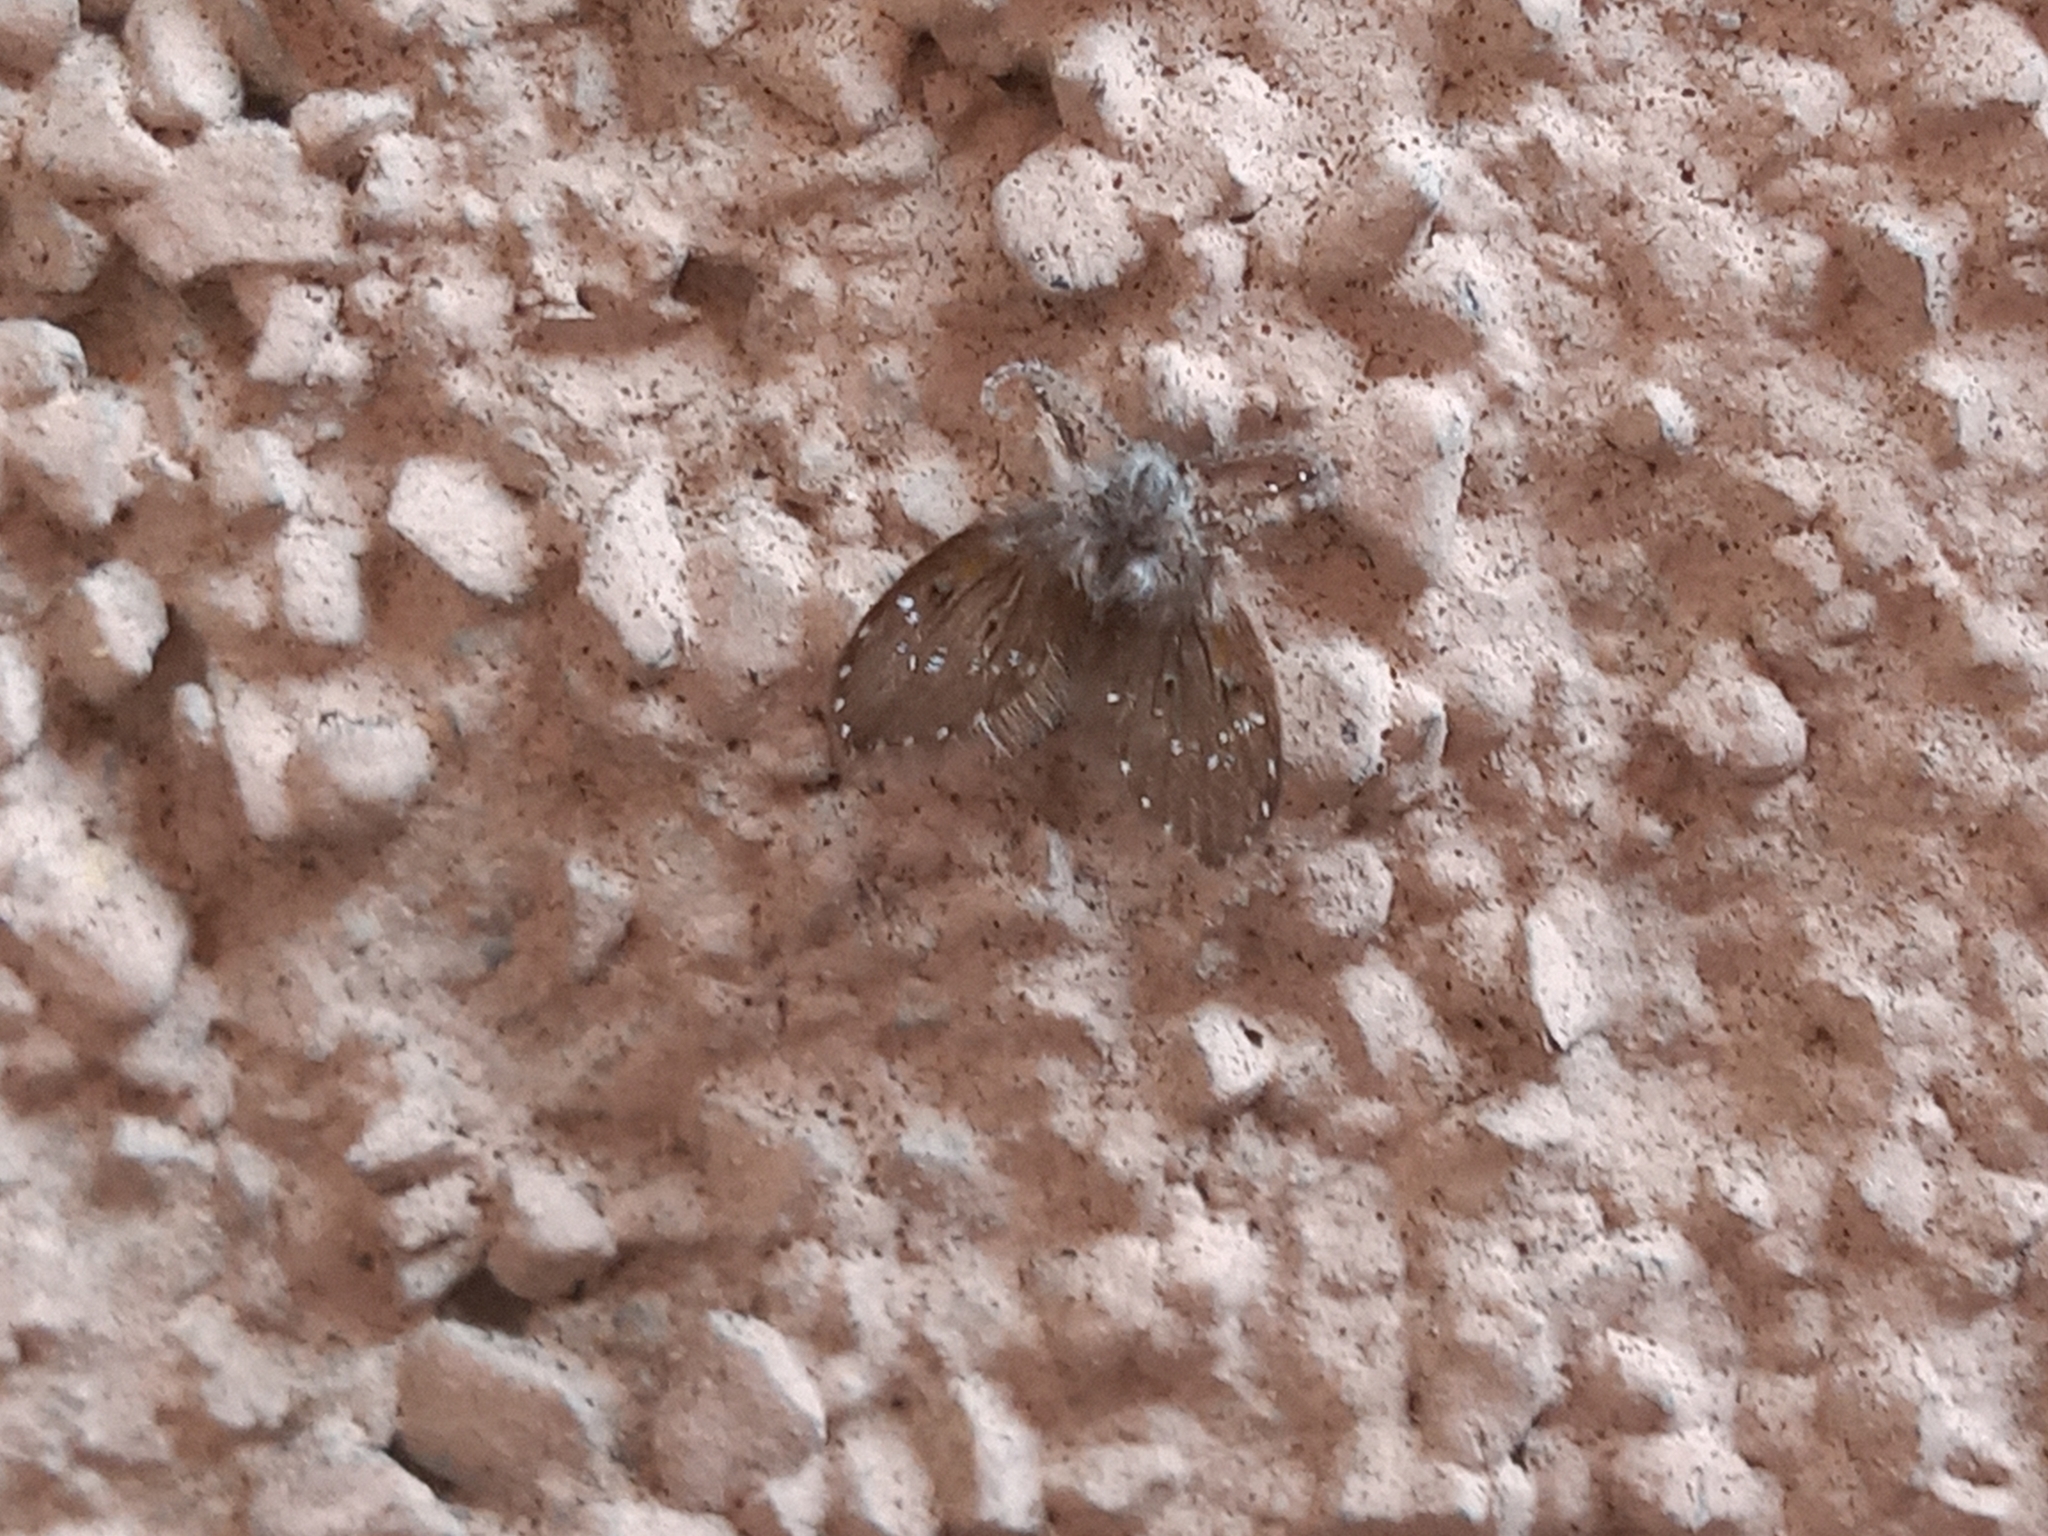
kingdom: Animalia
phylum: Arthropoda
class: Insecta
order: Diptera
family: Psychodidae
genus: Clogmia
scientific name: Clogmia albipunctatus
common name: White-spotted moth fly
